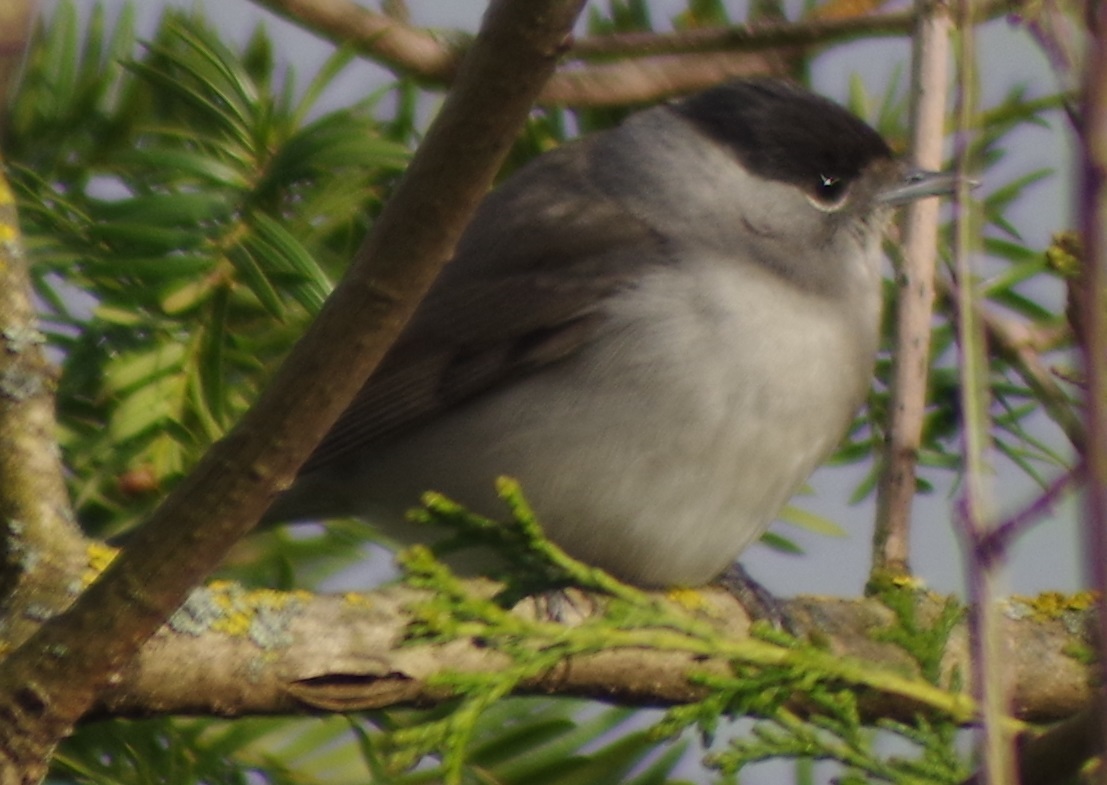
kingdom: Animalia
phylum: Chordata
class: Aves
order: Passeriformes
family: Sylviidae
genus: Sylvia
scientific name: Sylvia atricapilla
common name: Eurasian blackcap
